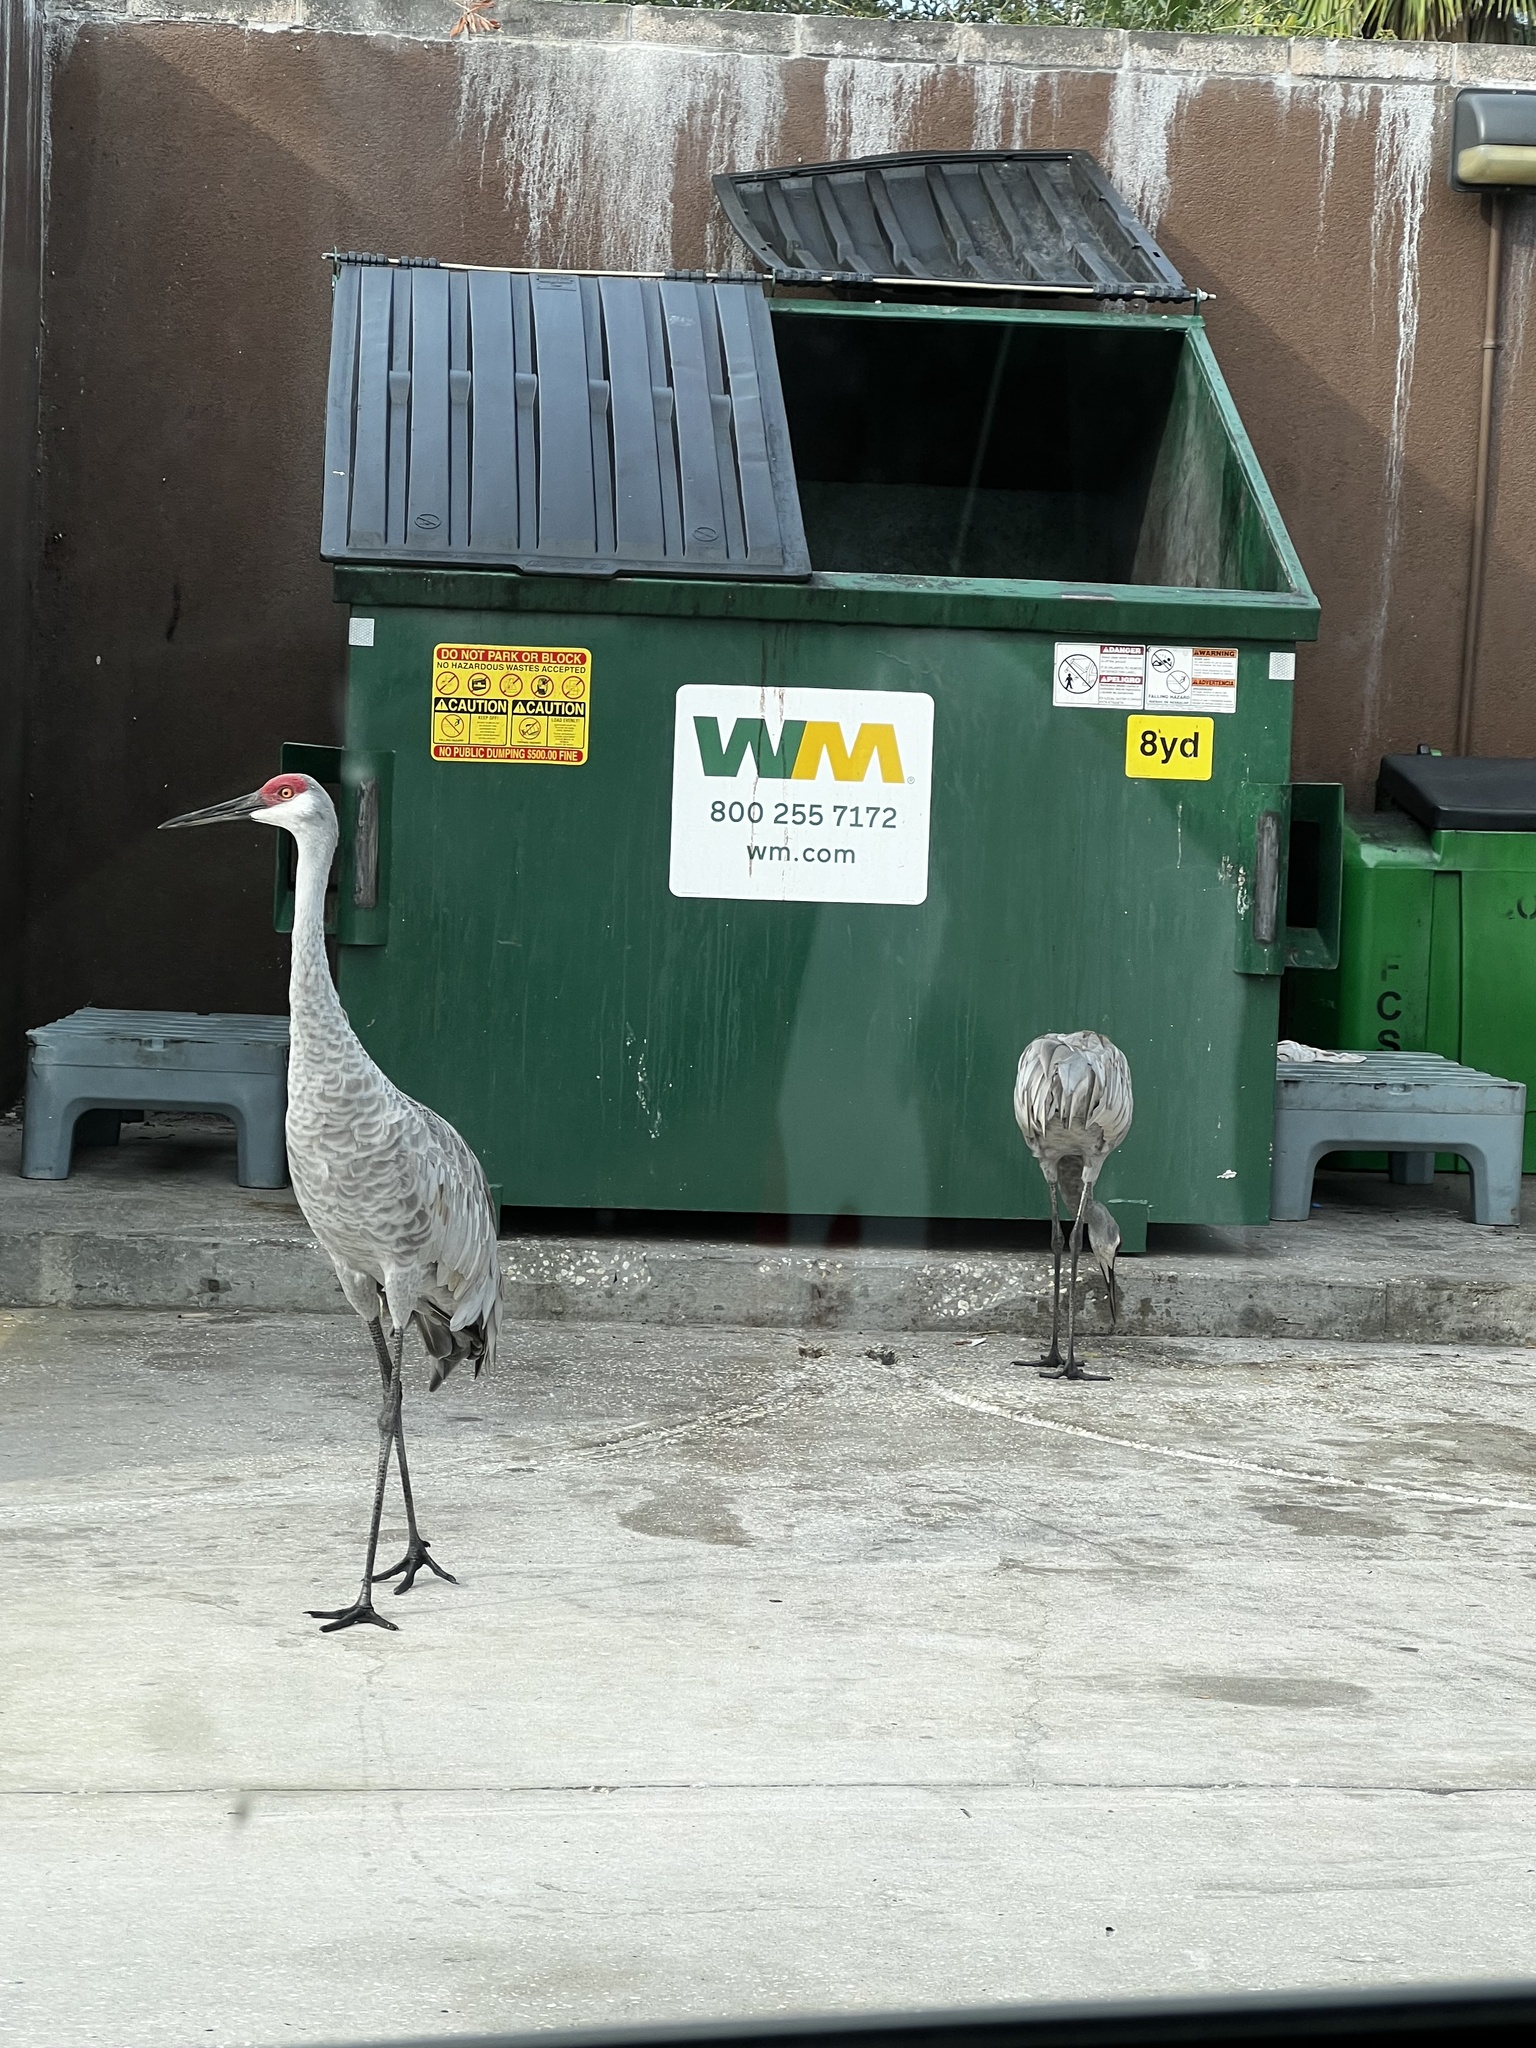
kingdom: Animalia
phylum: Chordata
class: Aves
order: Gruiformes
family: Gruidae
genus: Grus
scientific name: Grus canadensis
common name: Sandhill crane
